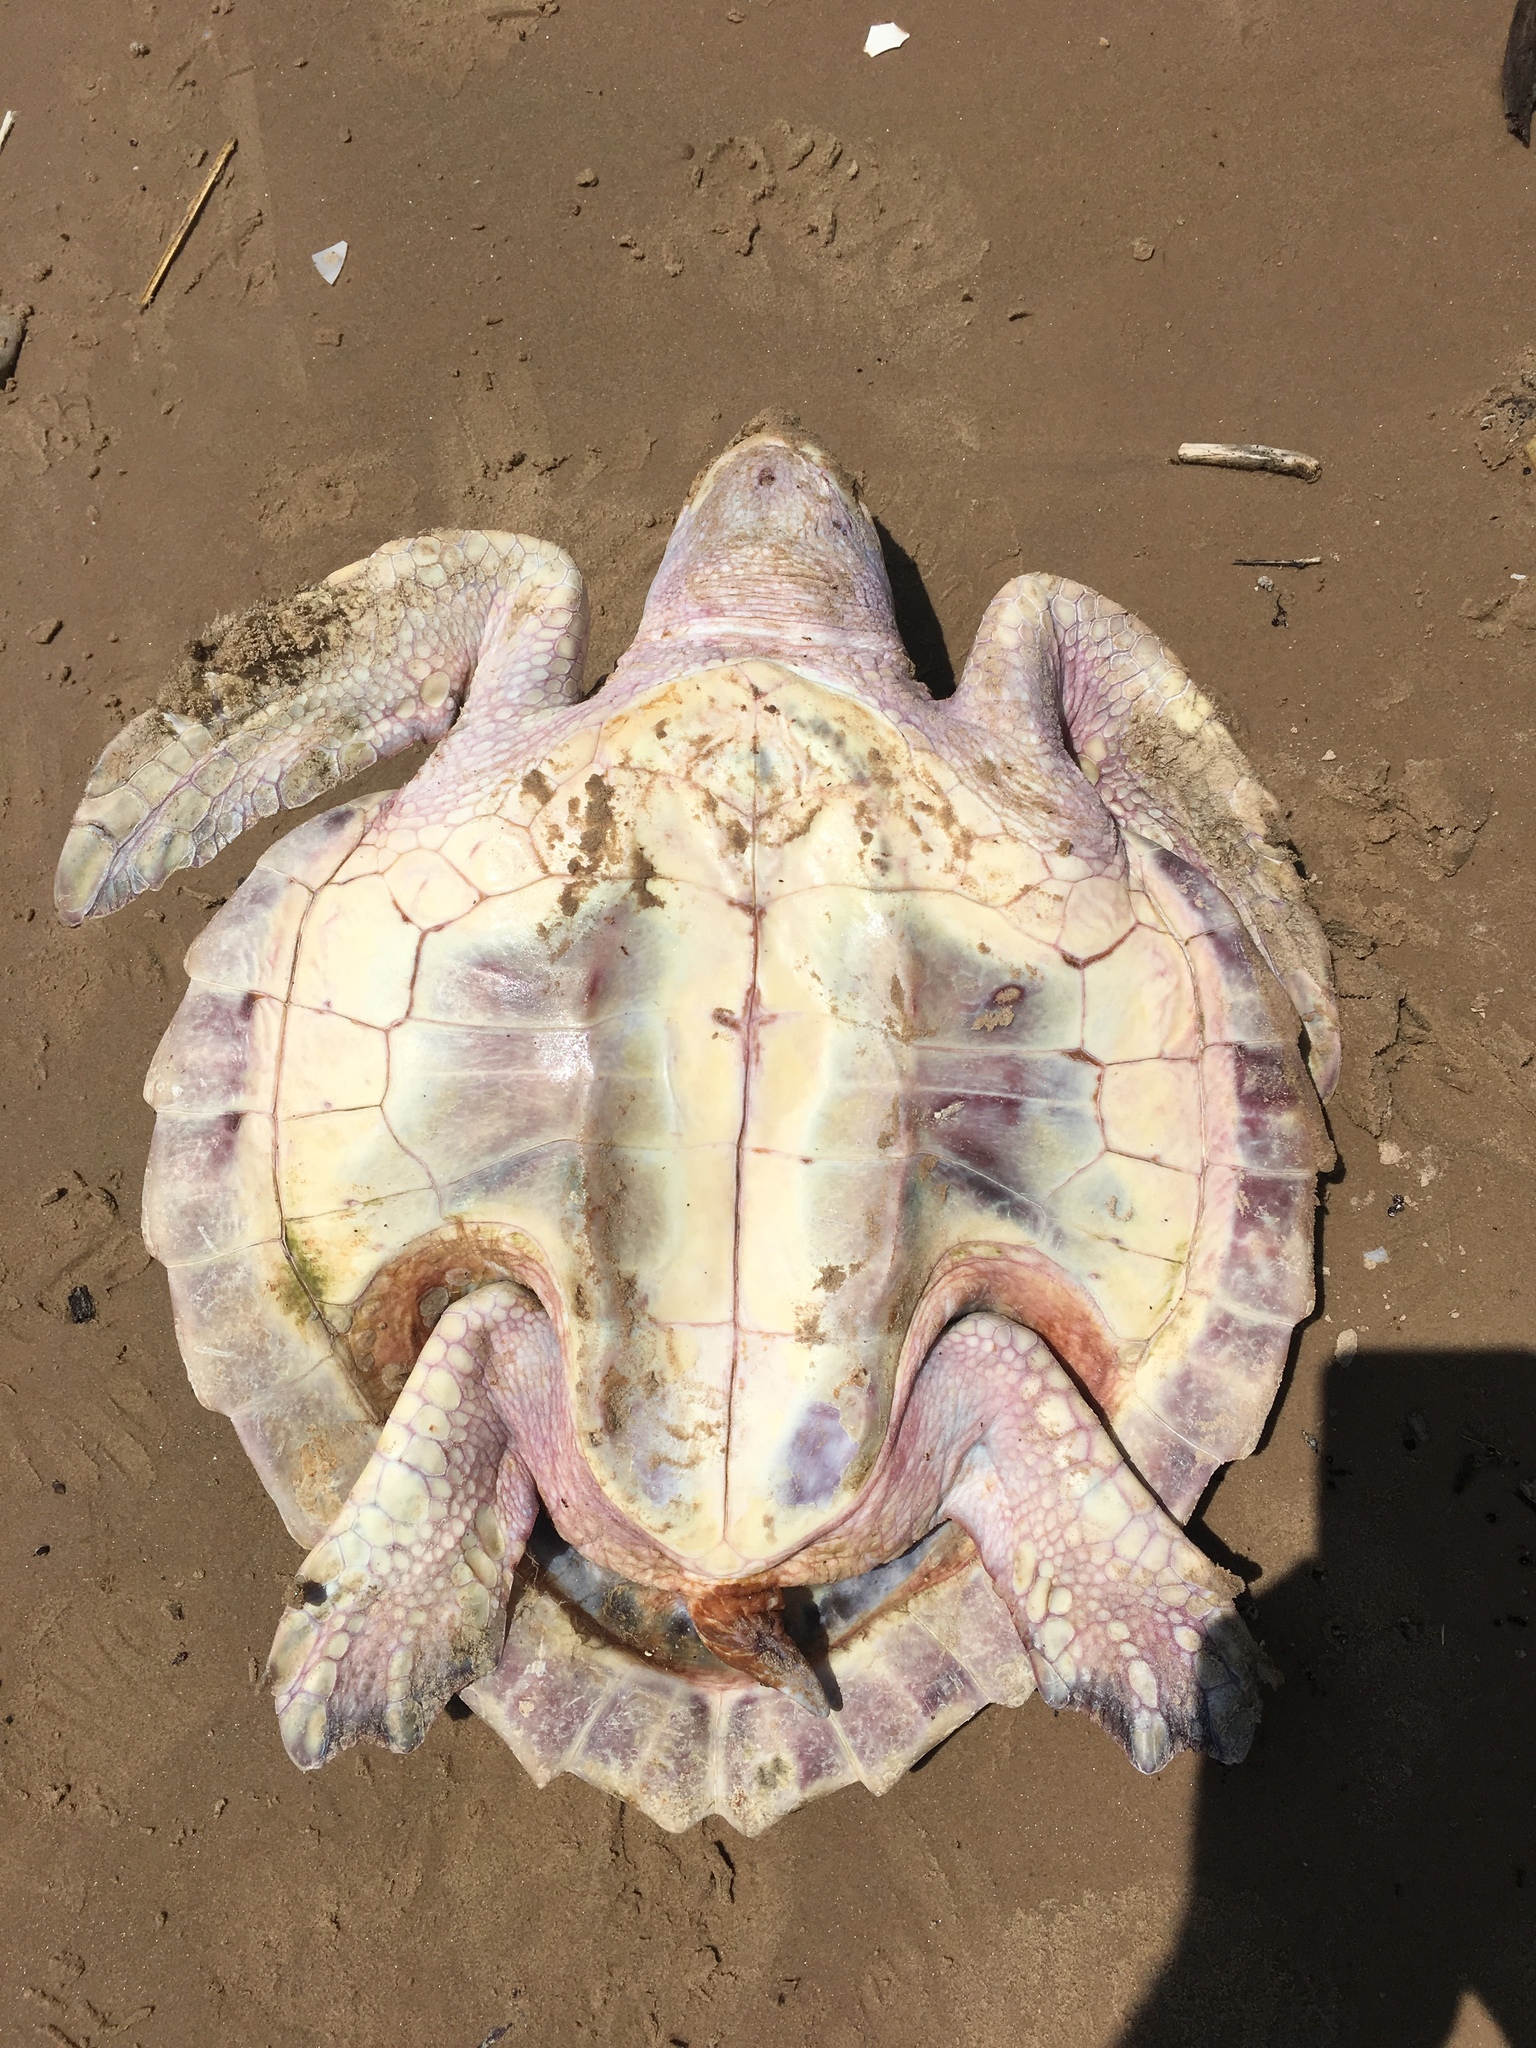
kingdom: Animalia
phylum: Chordata
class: Testudines
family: Cheloniidae
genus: Lepidochelys
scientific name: Lepidochelys kempii
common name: Kemp's ridley turtle
